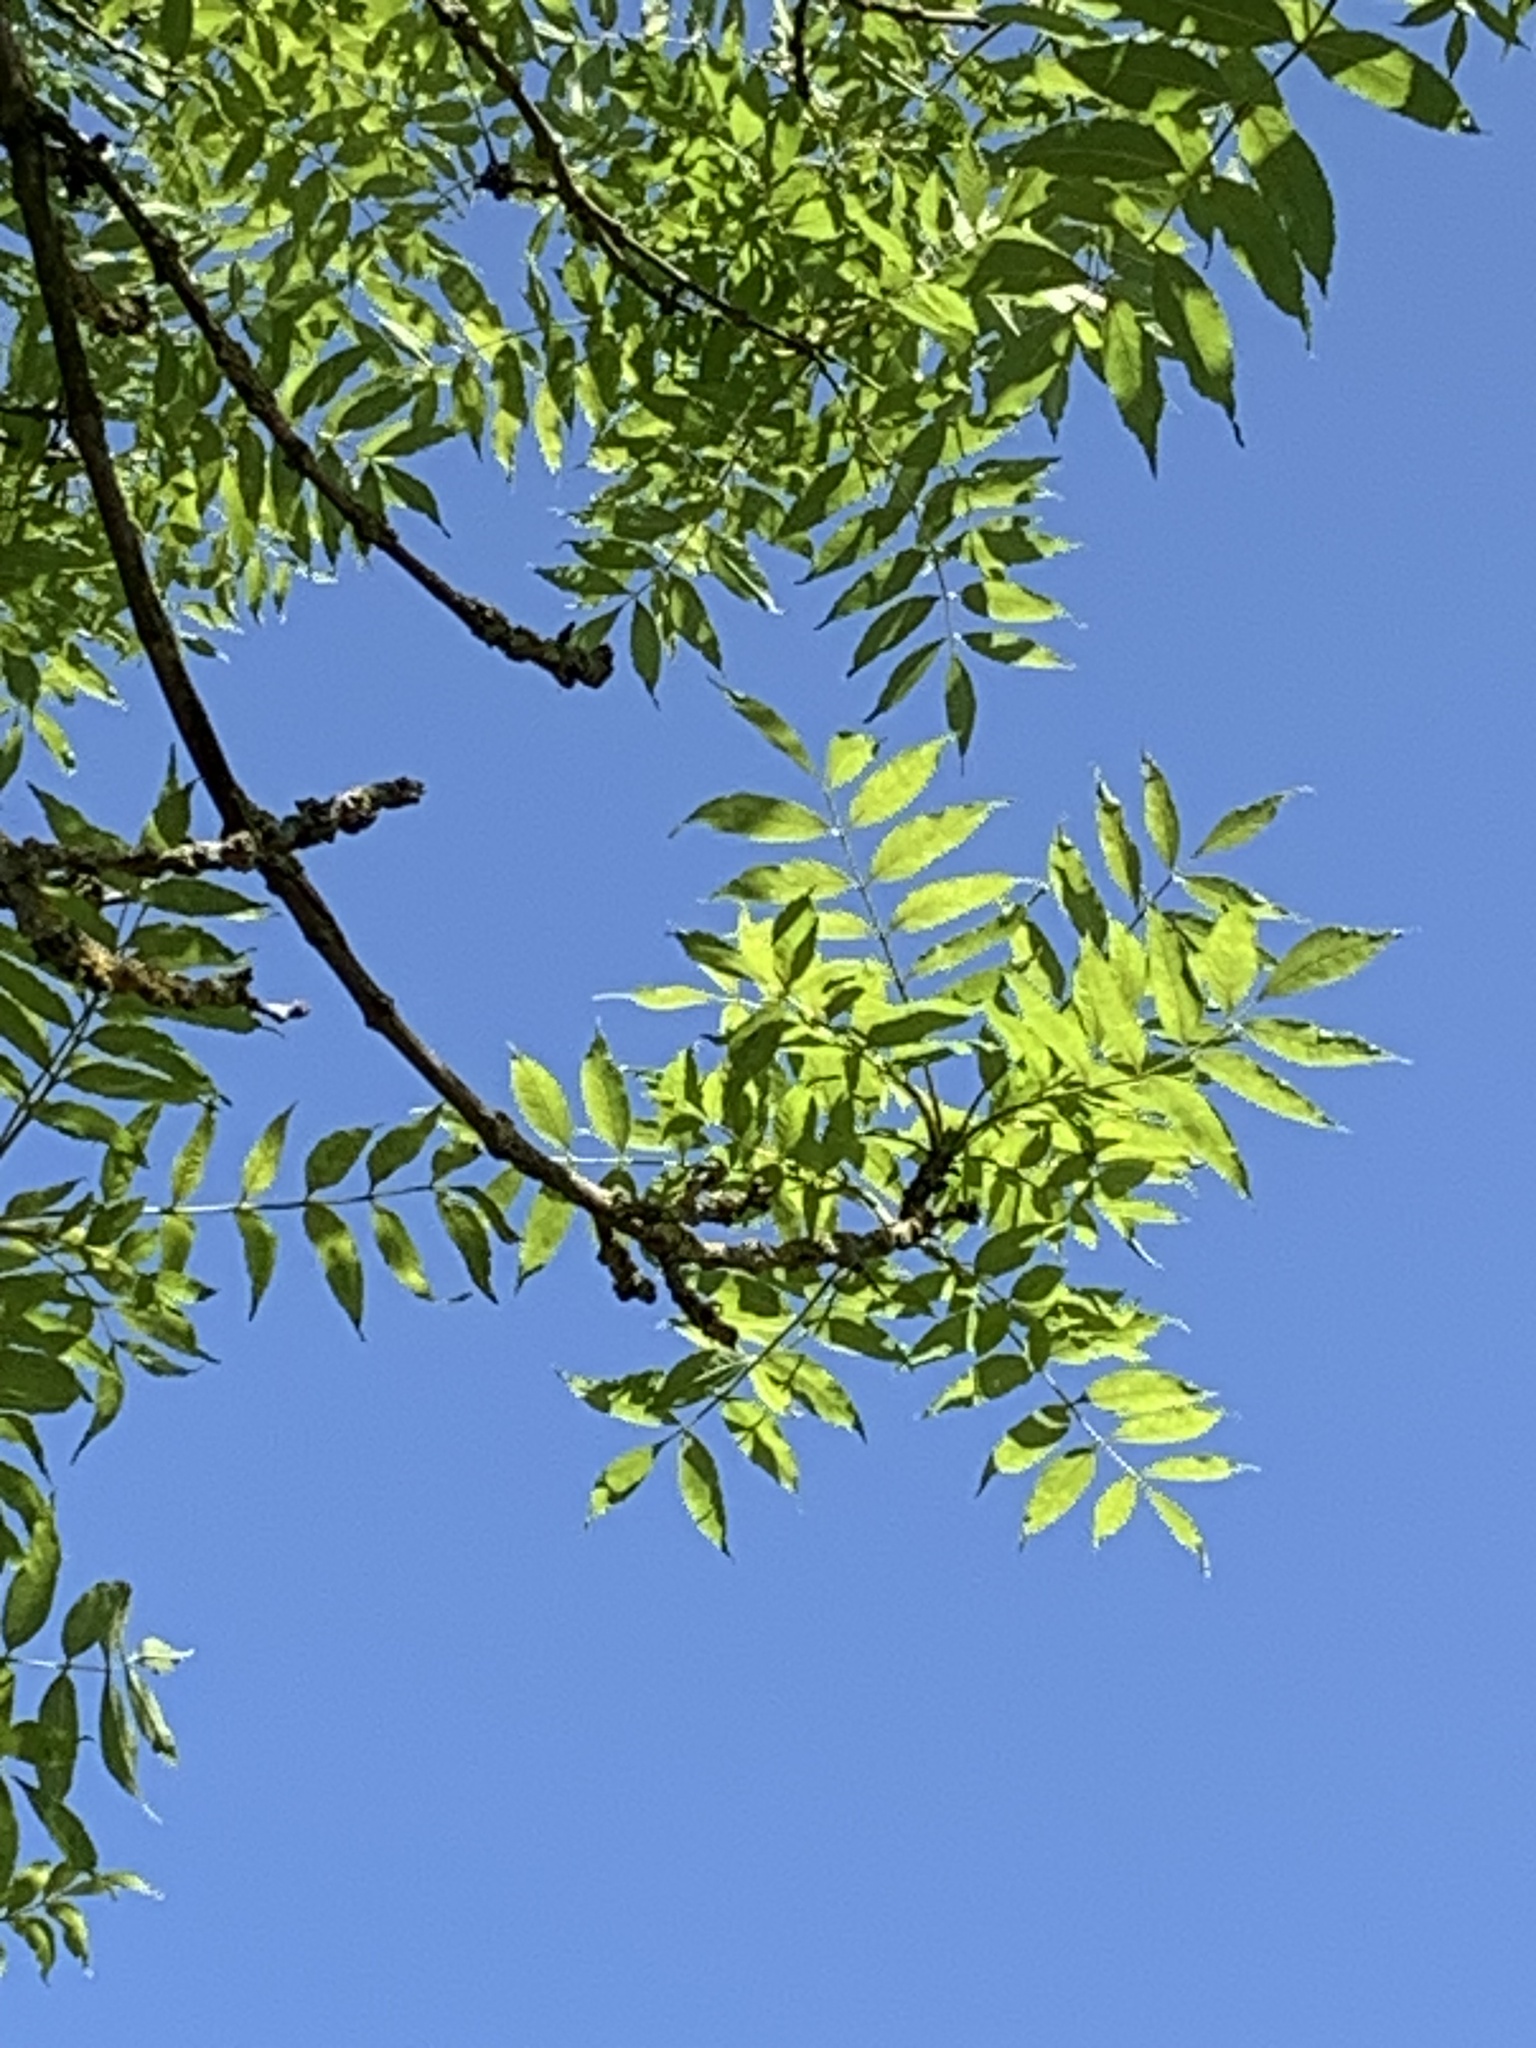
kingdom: Plantae
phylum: Tracheophyta
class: Magnoliopsida
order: Lamiales
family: Oleaceae
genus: Fraxinus
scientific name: Fraxinus excelsior
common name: European ash
